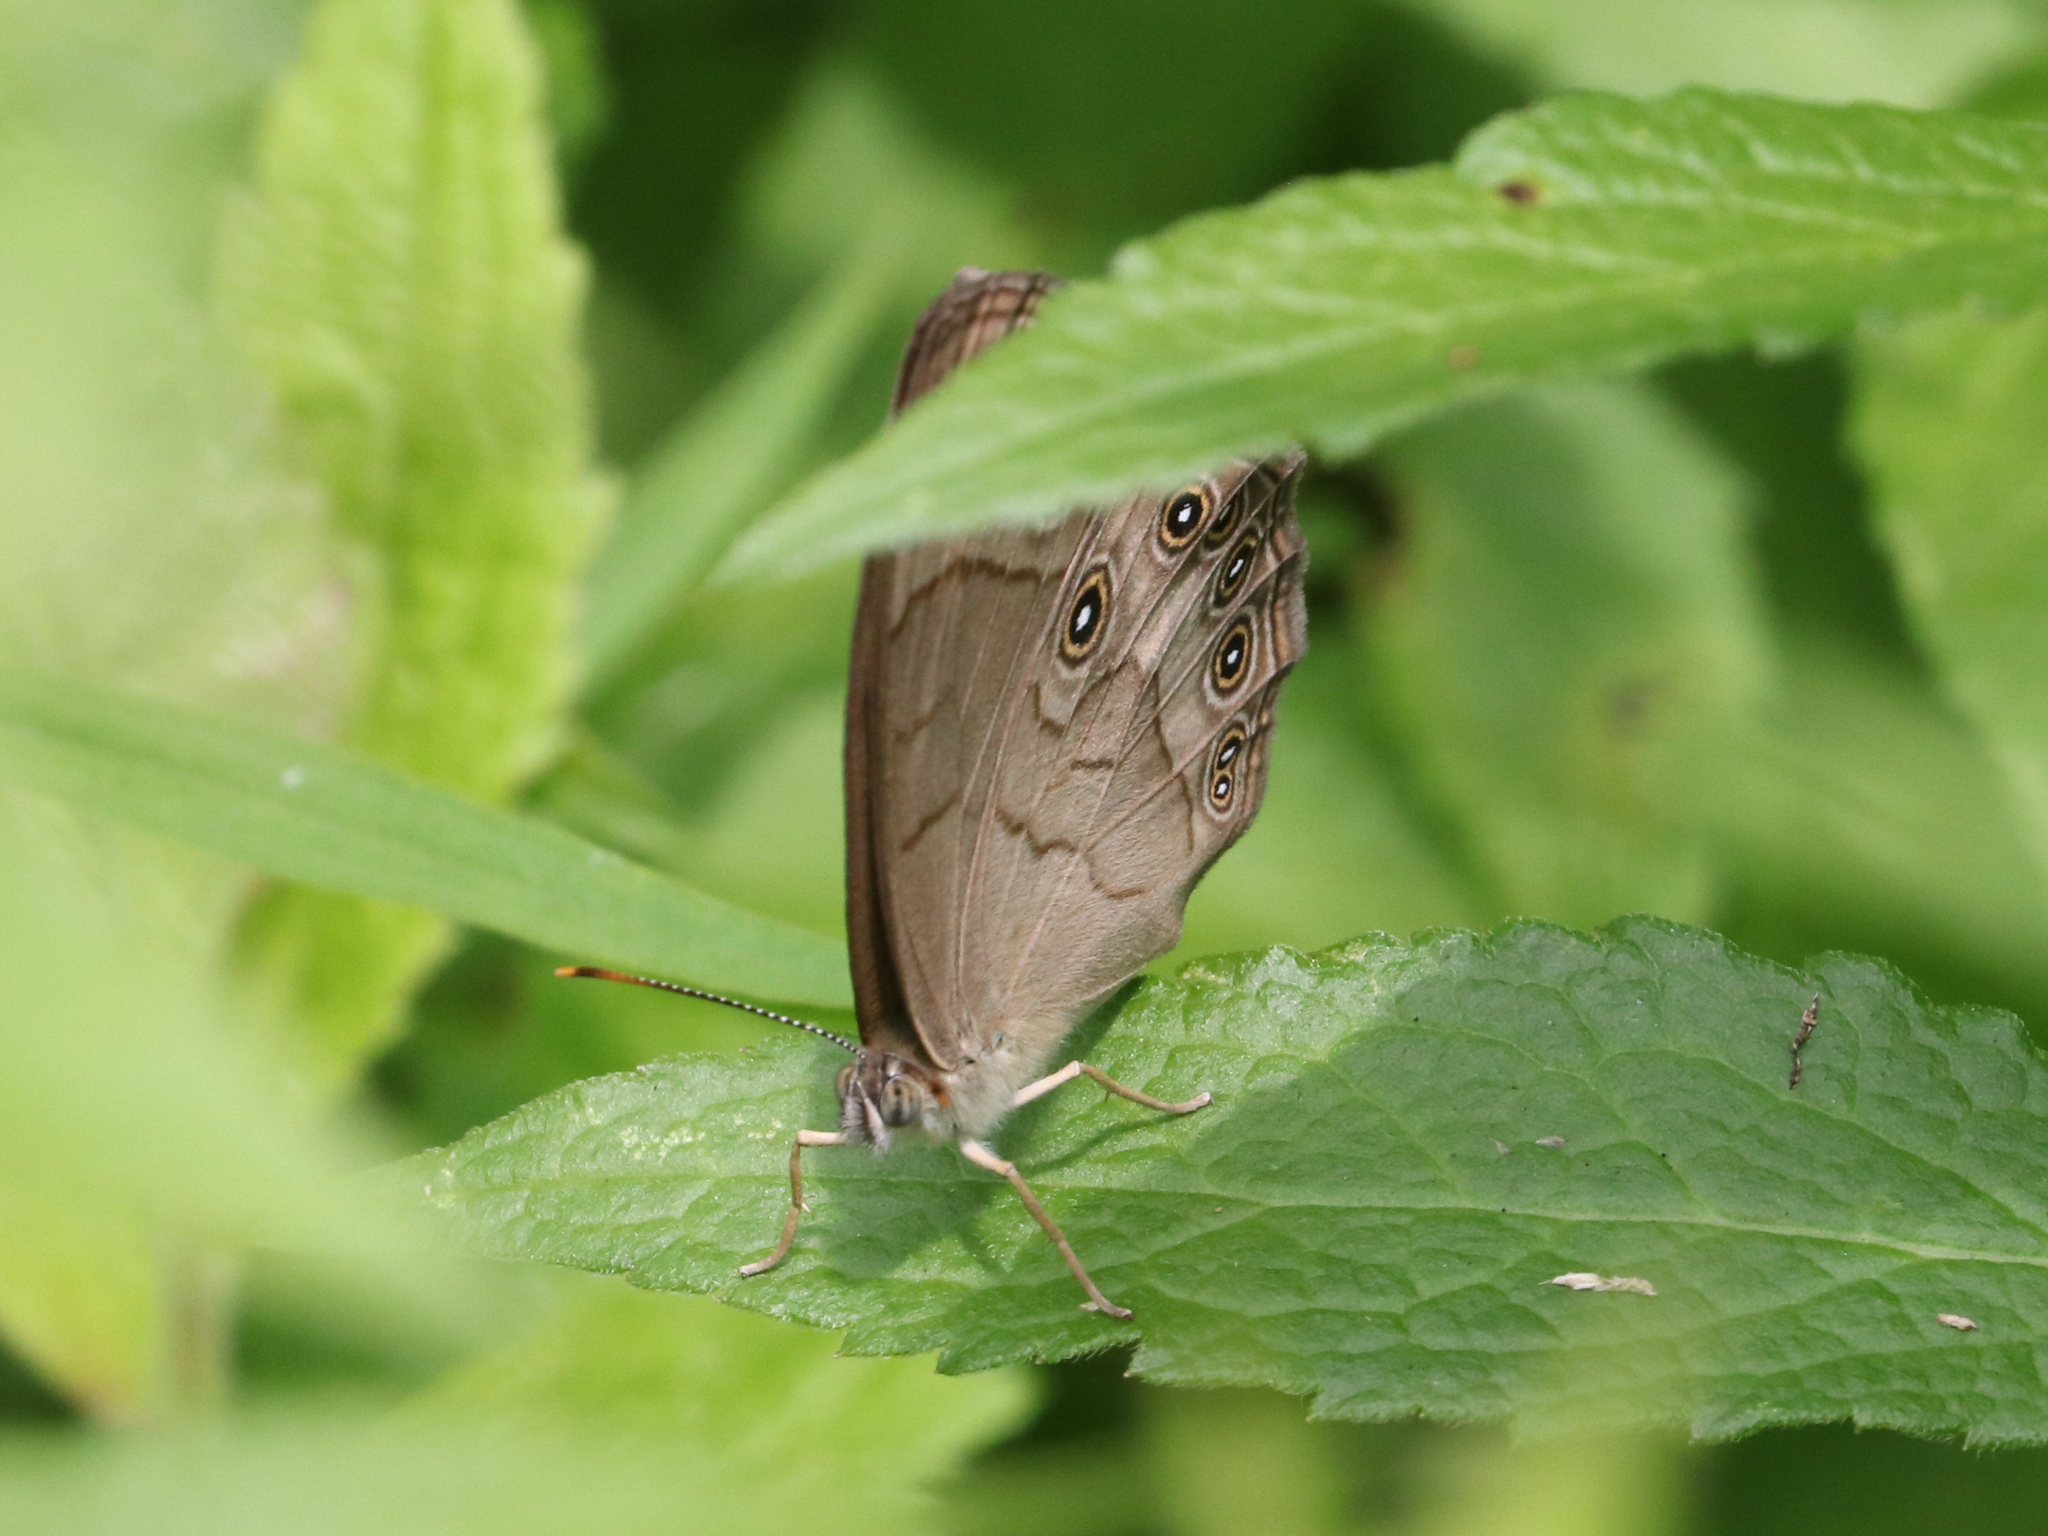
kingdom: Animalia
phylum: Arthropoda
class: Insecta
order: Lepidoptera
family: Nymphalidae
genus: Lethe
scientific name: Lethe eurydice
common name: Eyed brown
